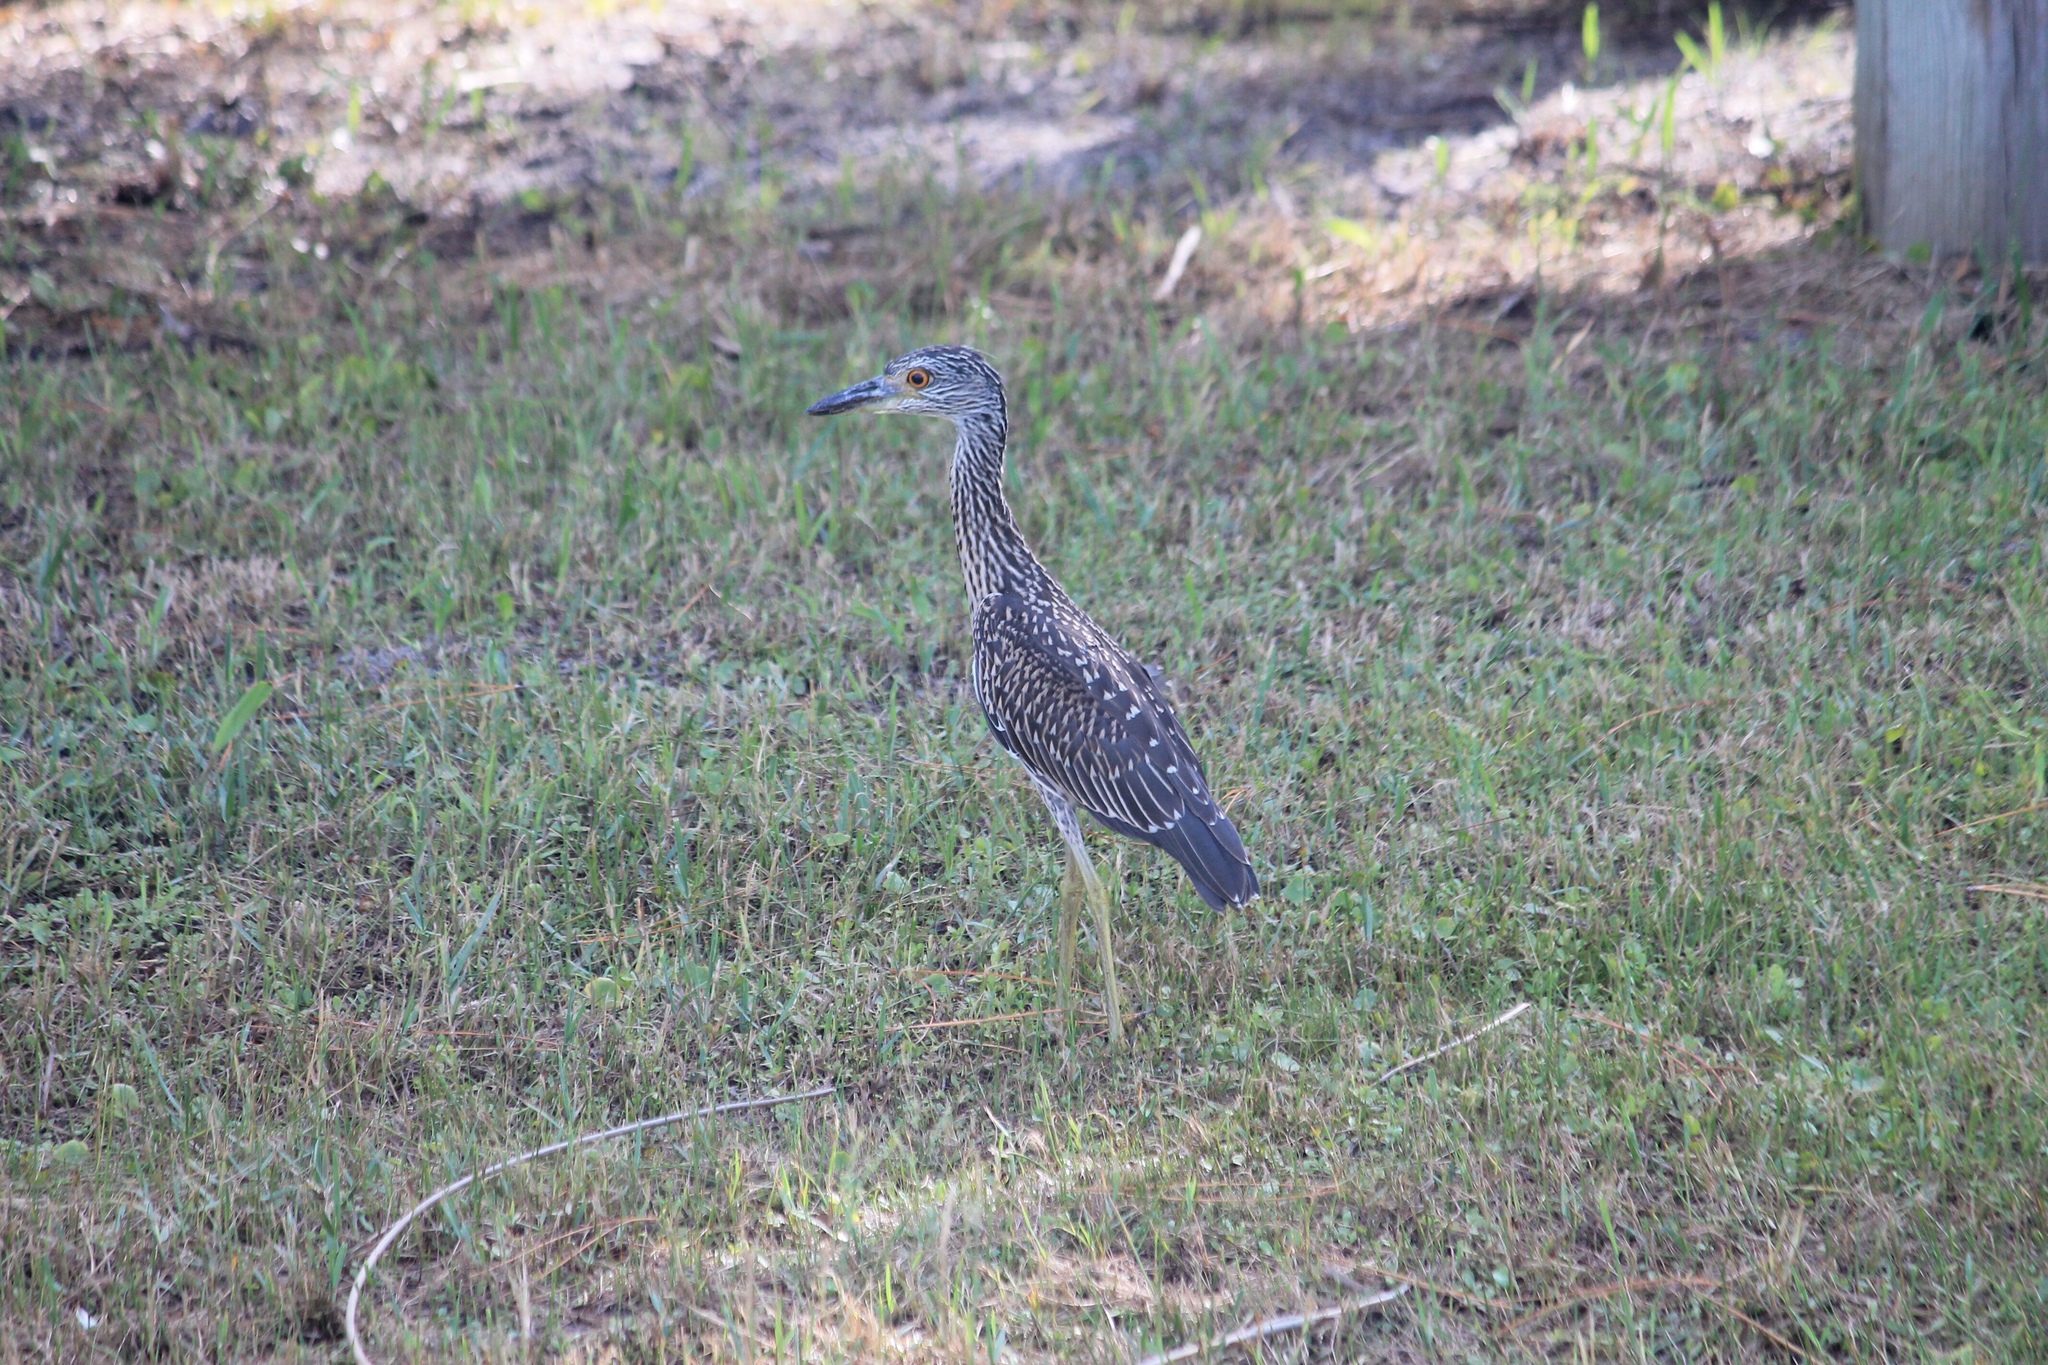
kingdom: Animalia
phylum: Chordata
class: Aves
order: Pelecaniformes
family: Ardeidae
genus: Nyctanassa
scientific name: Nyctanassa violacea
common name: Yellow-crowned night heron
